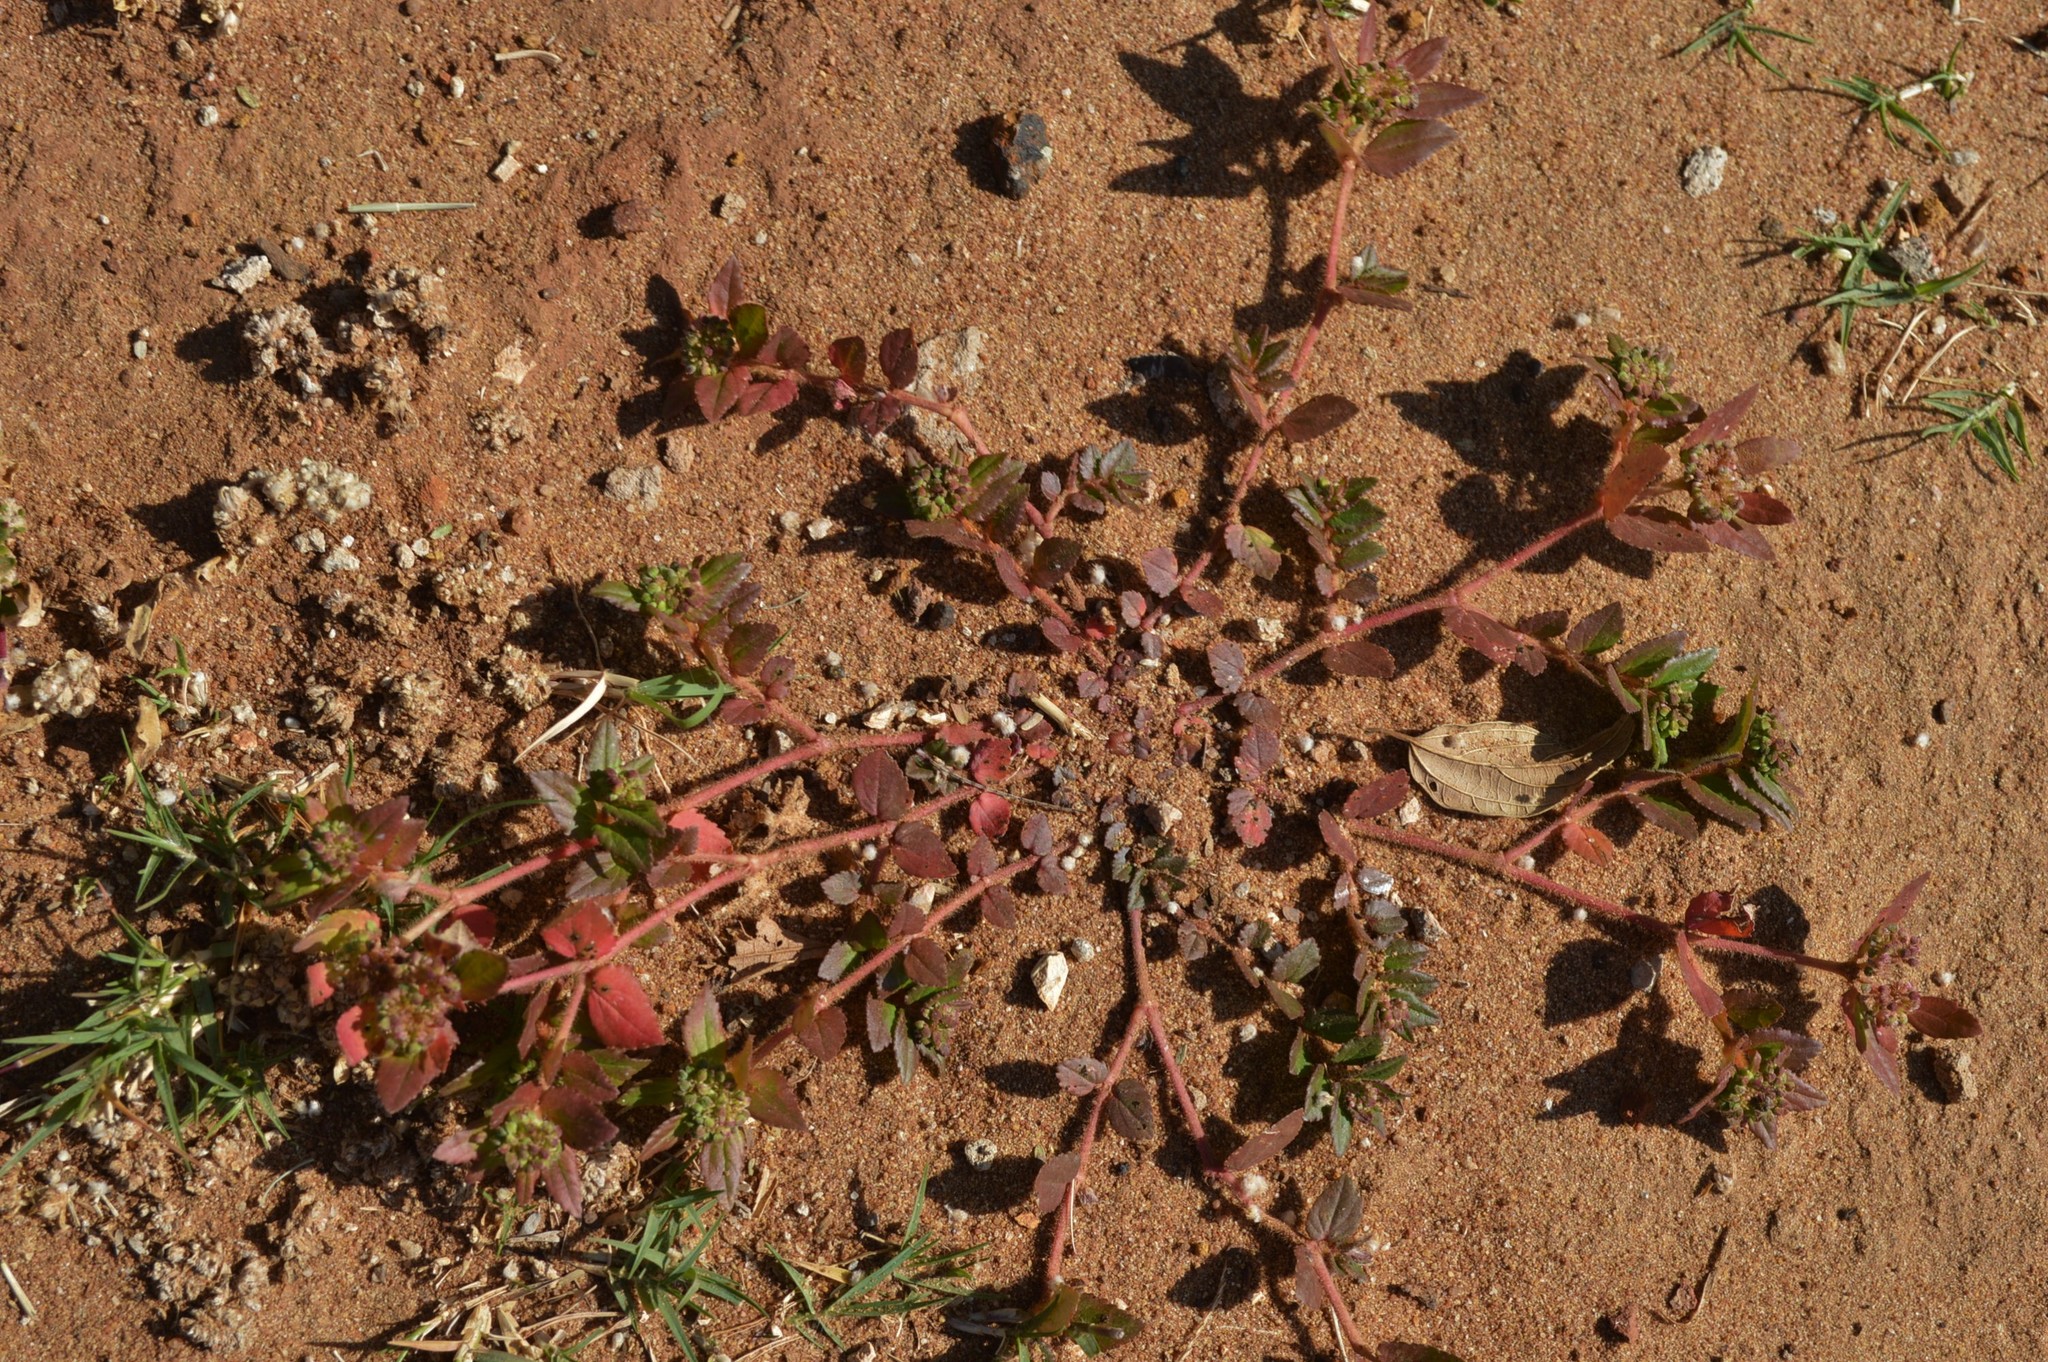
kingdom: Plantae
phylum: Tracheophyta
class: Magnoliopsida
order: Malpighiales
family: Euphorbiaceae
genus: Euphorbia
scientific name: Euphorbia ophthalmica
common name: Florida hammock sandmat
